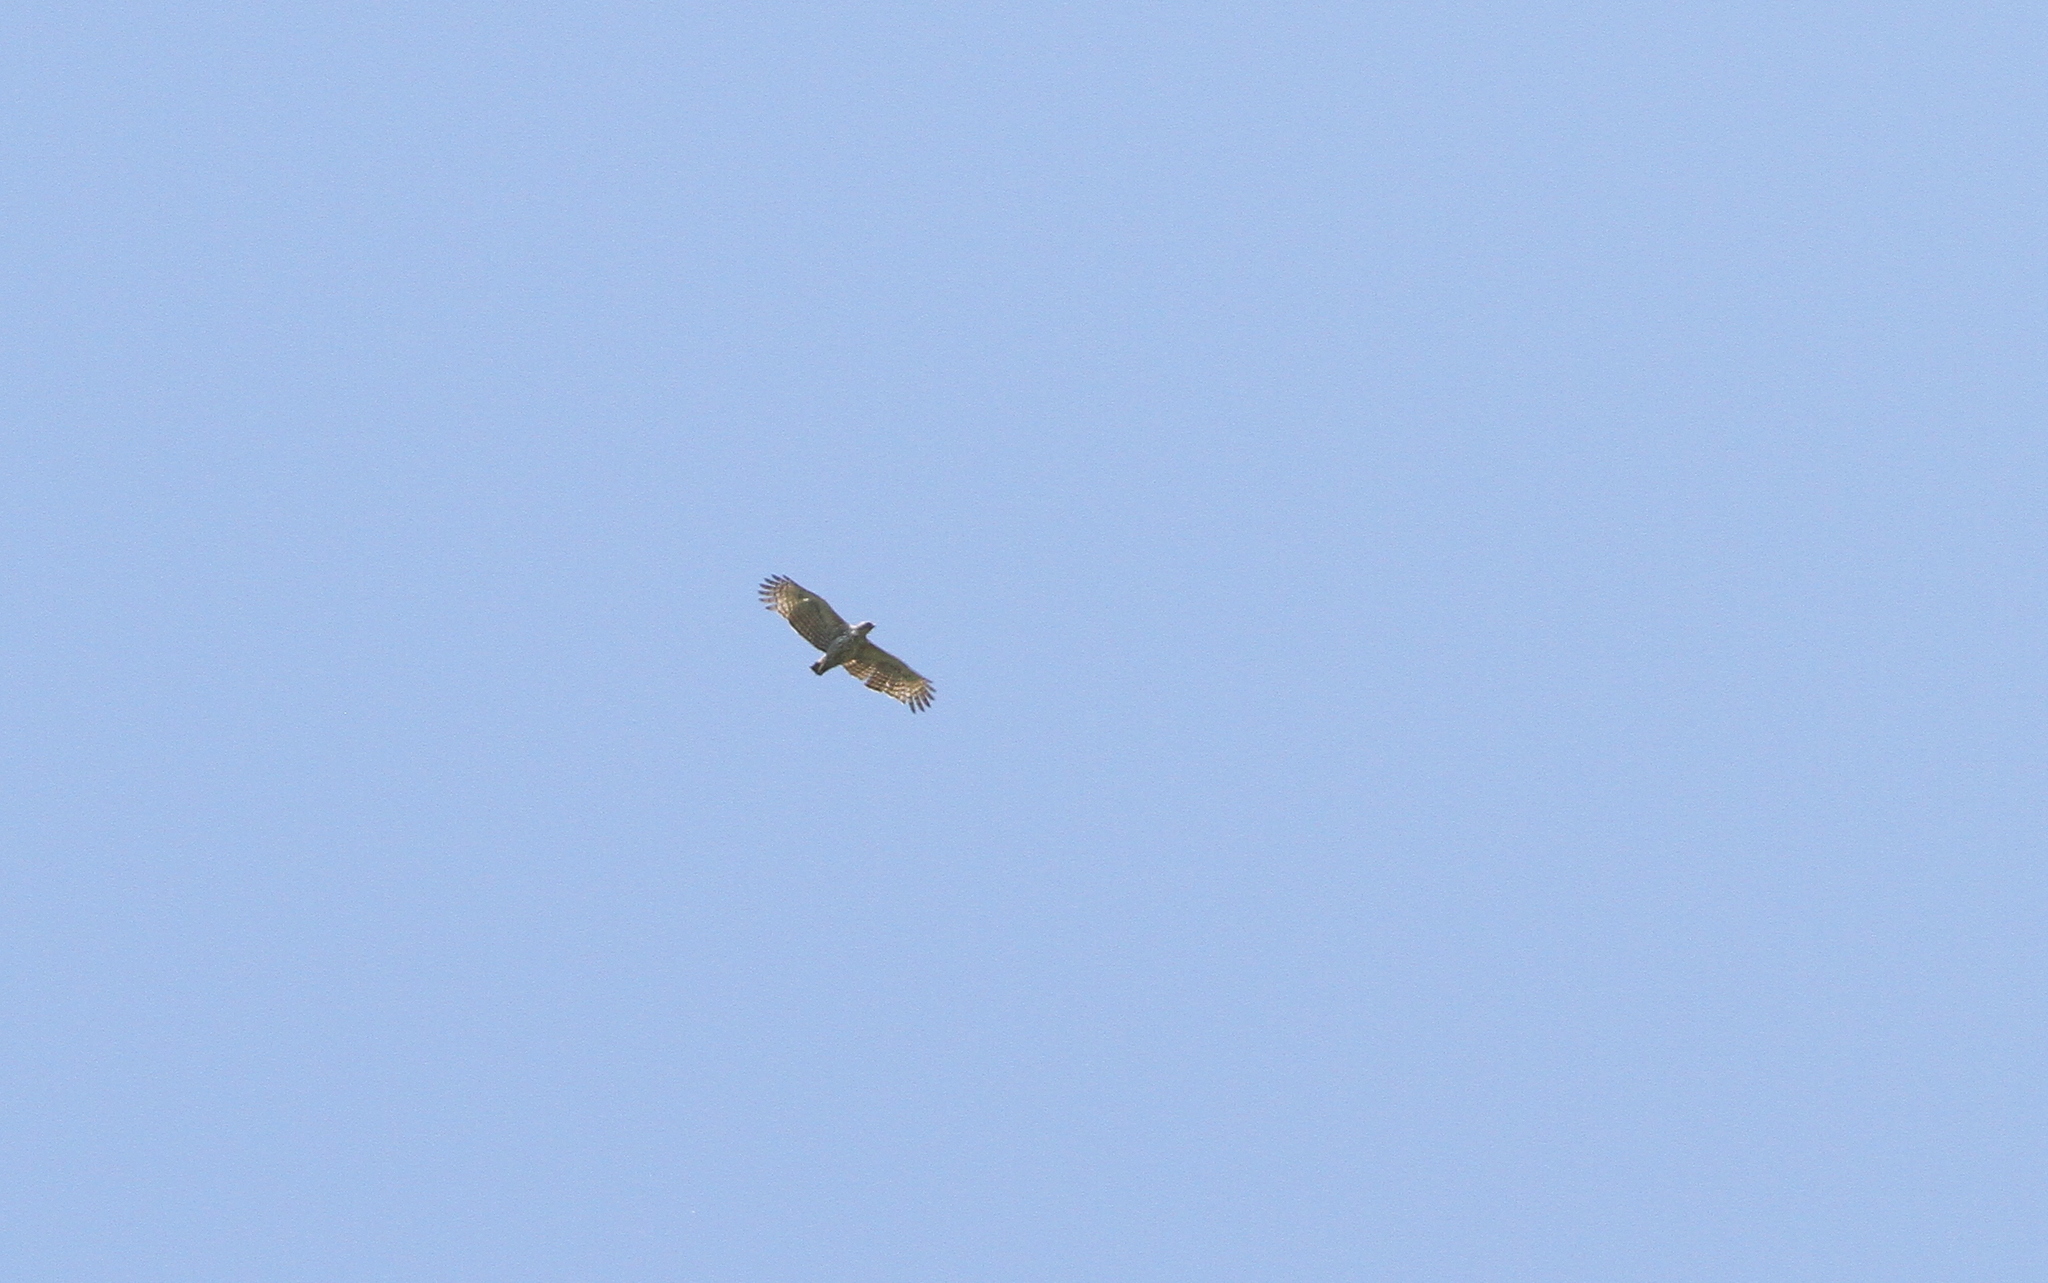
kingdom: Animalia
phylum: Chordata
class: Aves
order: Accipitriformes
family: Accipitridae
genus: Nisaetus
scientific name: Nisaetus cirrhatus
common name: Changeable hawk-eagle
